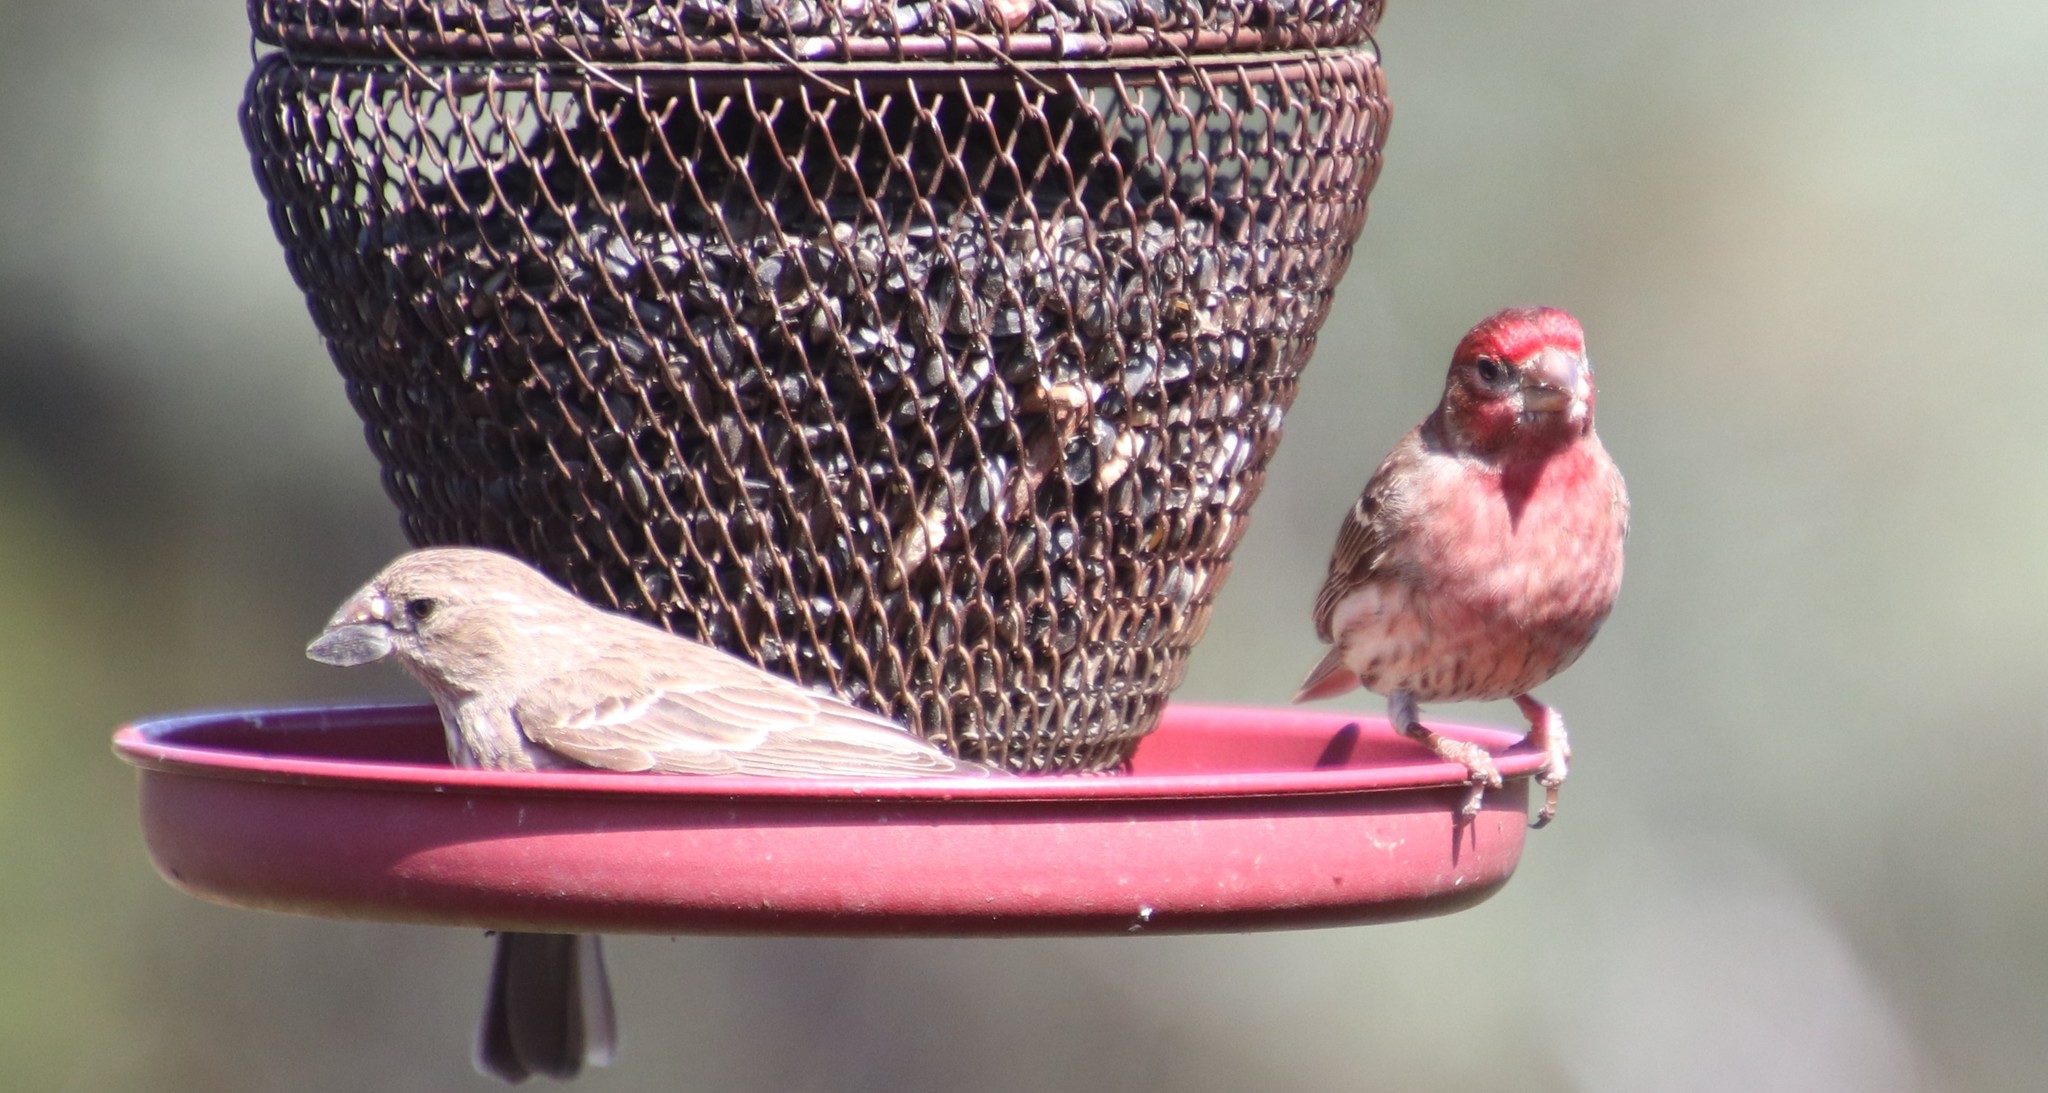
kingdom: Animalia
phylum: Chordata
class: Aves
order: Passeriformes
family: Fringillidae
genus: Haemorhous
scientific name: Haemorhous mexicanus
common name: House finch
